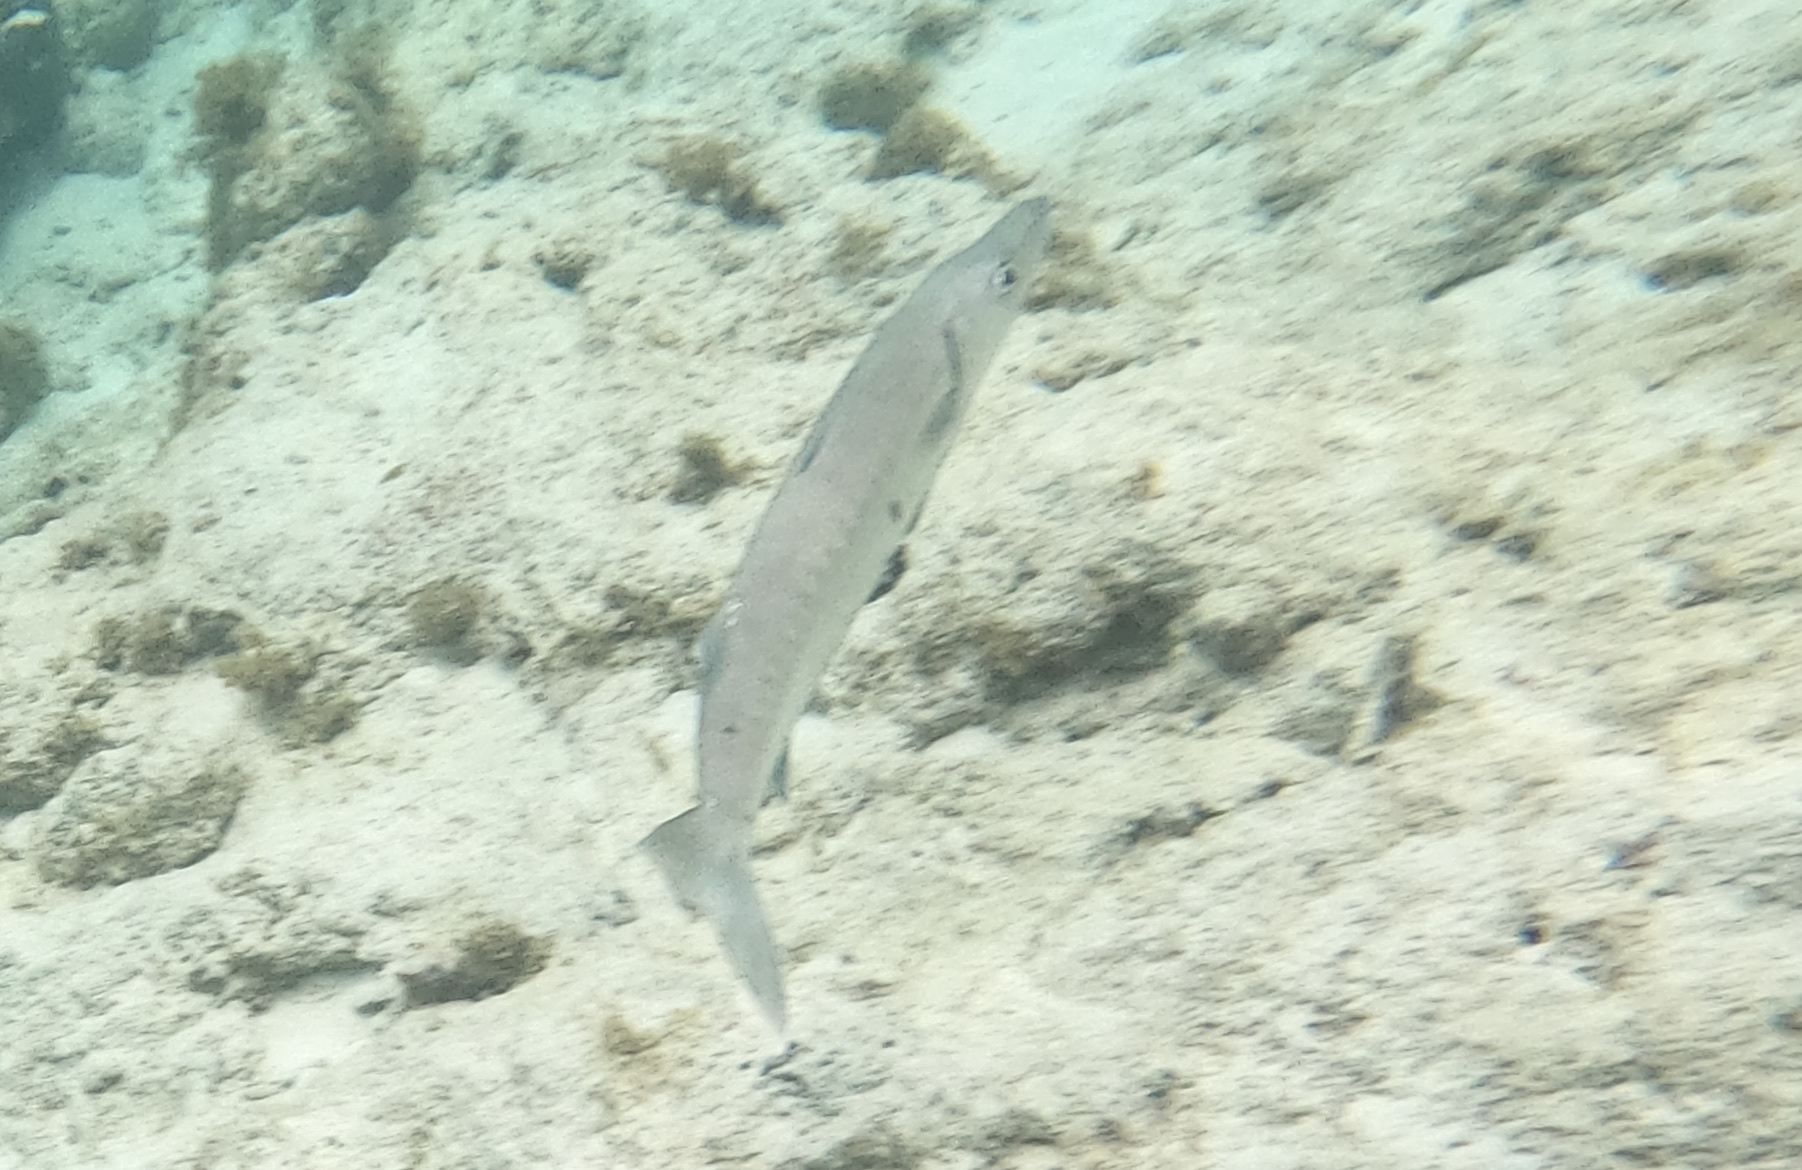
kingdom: Animalia
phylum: Chordata
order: Perciformes
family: Sphyraenidae
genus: Sphyraena
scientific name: Sphyraena barracuda
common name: Great barracuda
